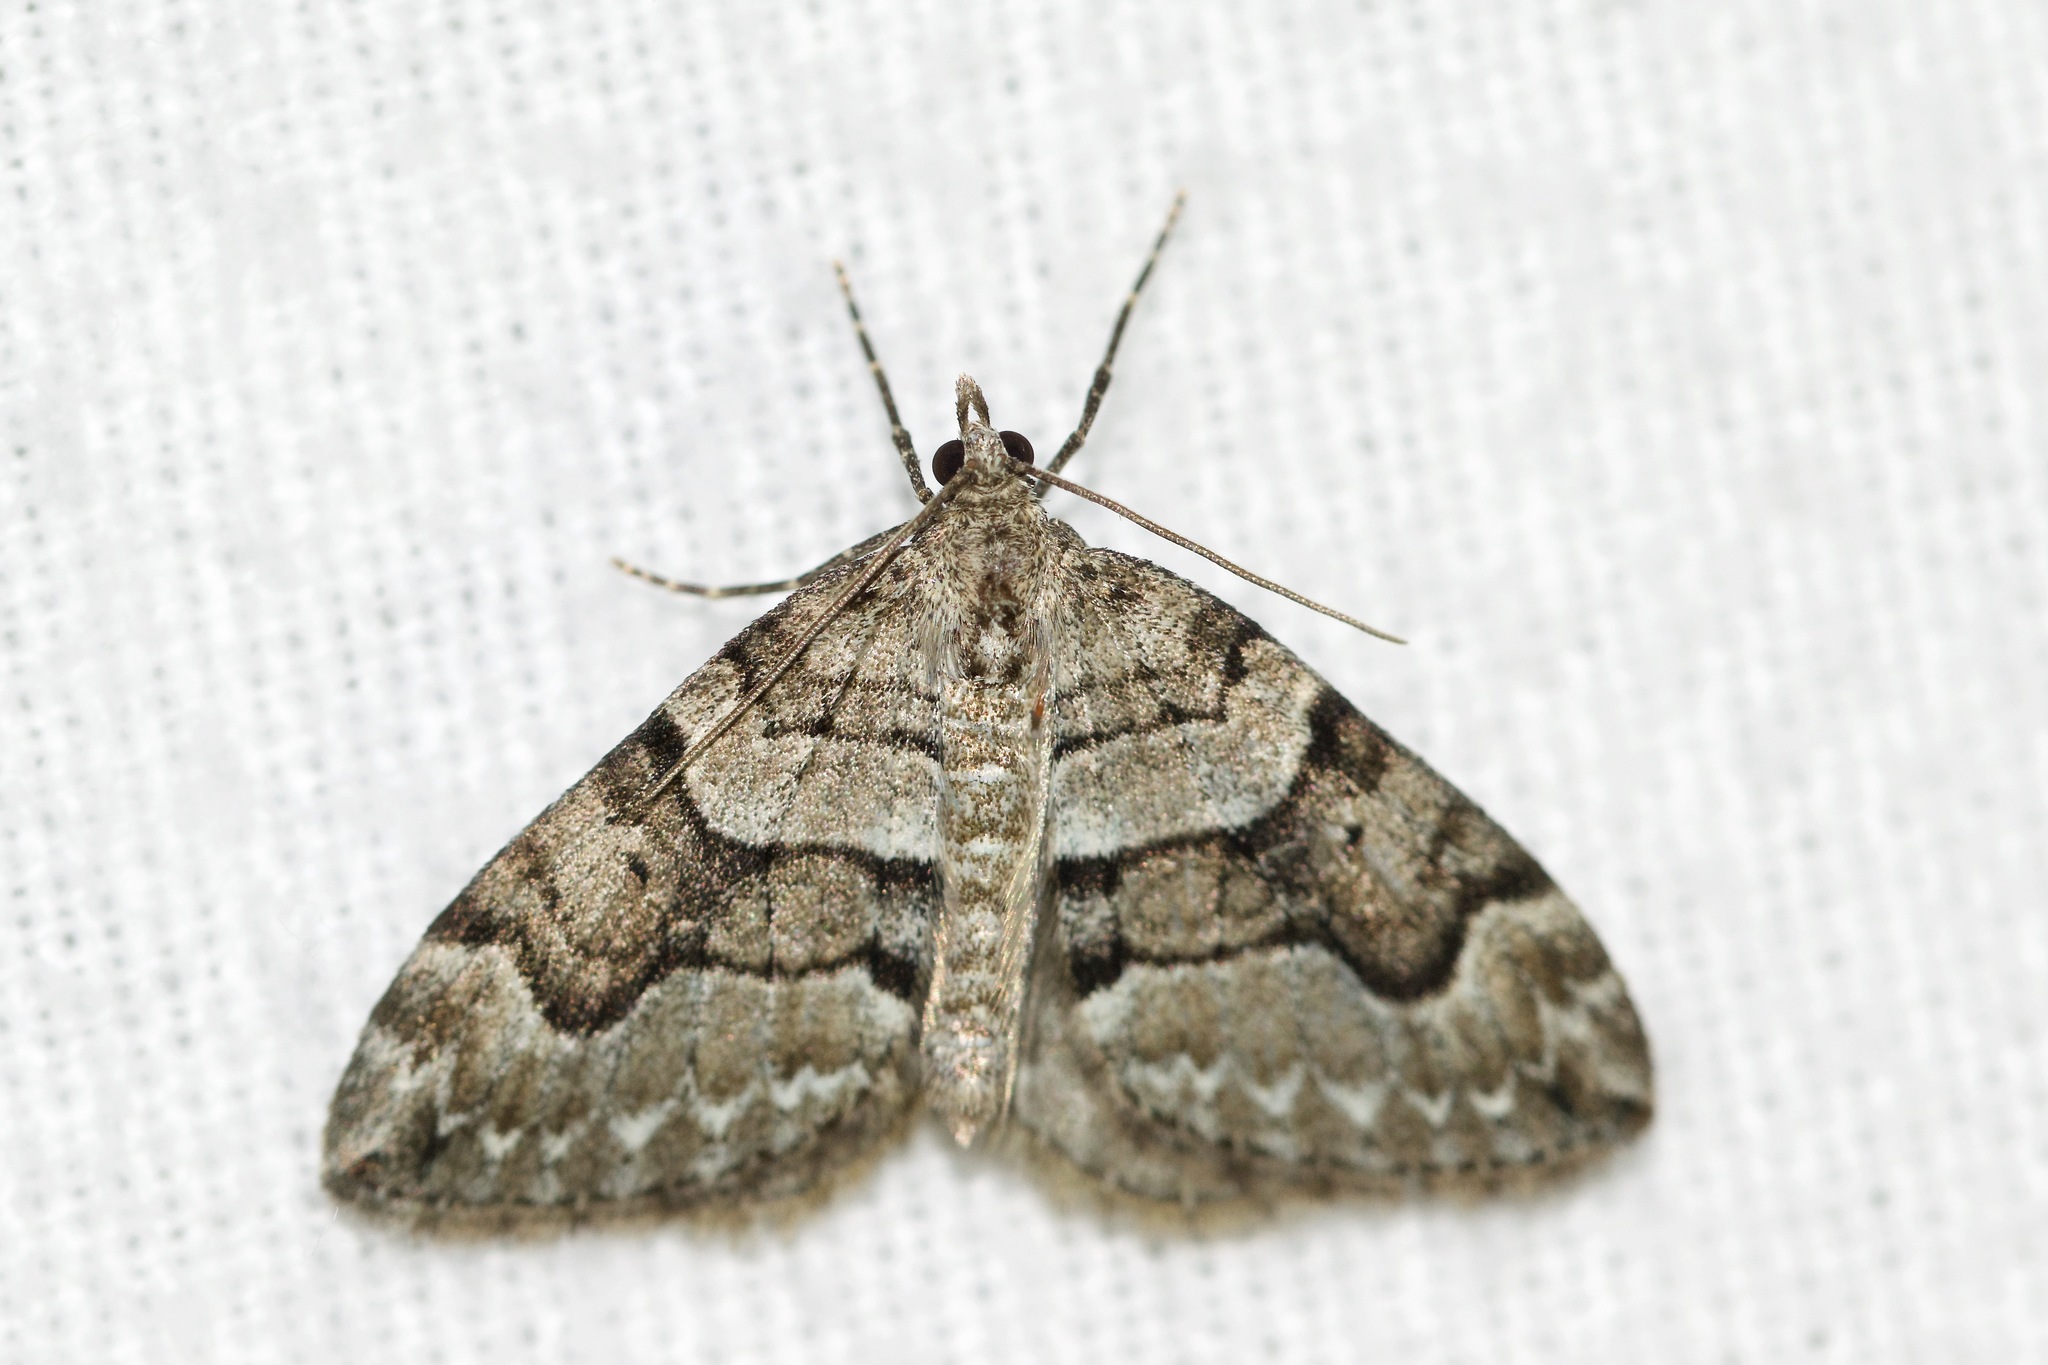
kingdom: Animalia
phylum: Arthropoda
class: Insecta
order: Lepidoptera
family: Geometridae
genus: Thera
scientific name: Thera contractata
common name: Contracted spanworm
